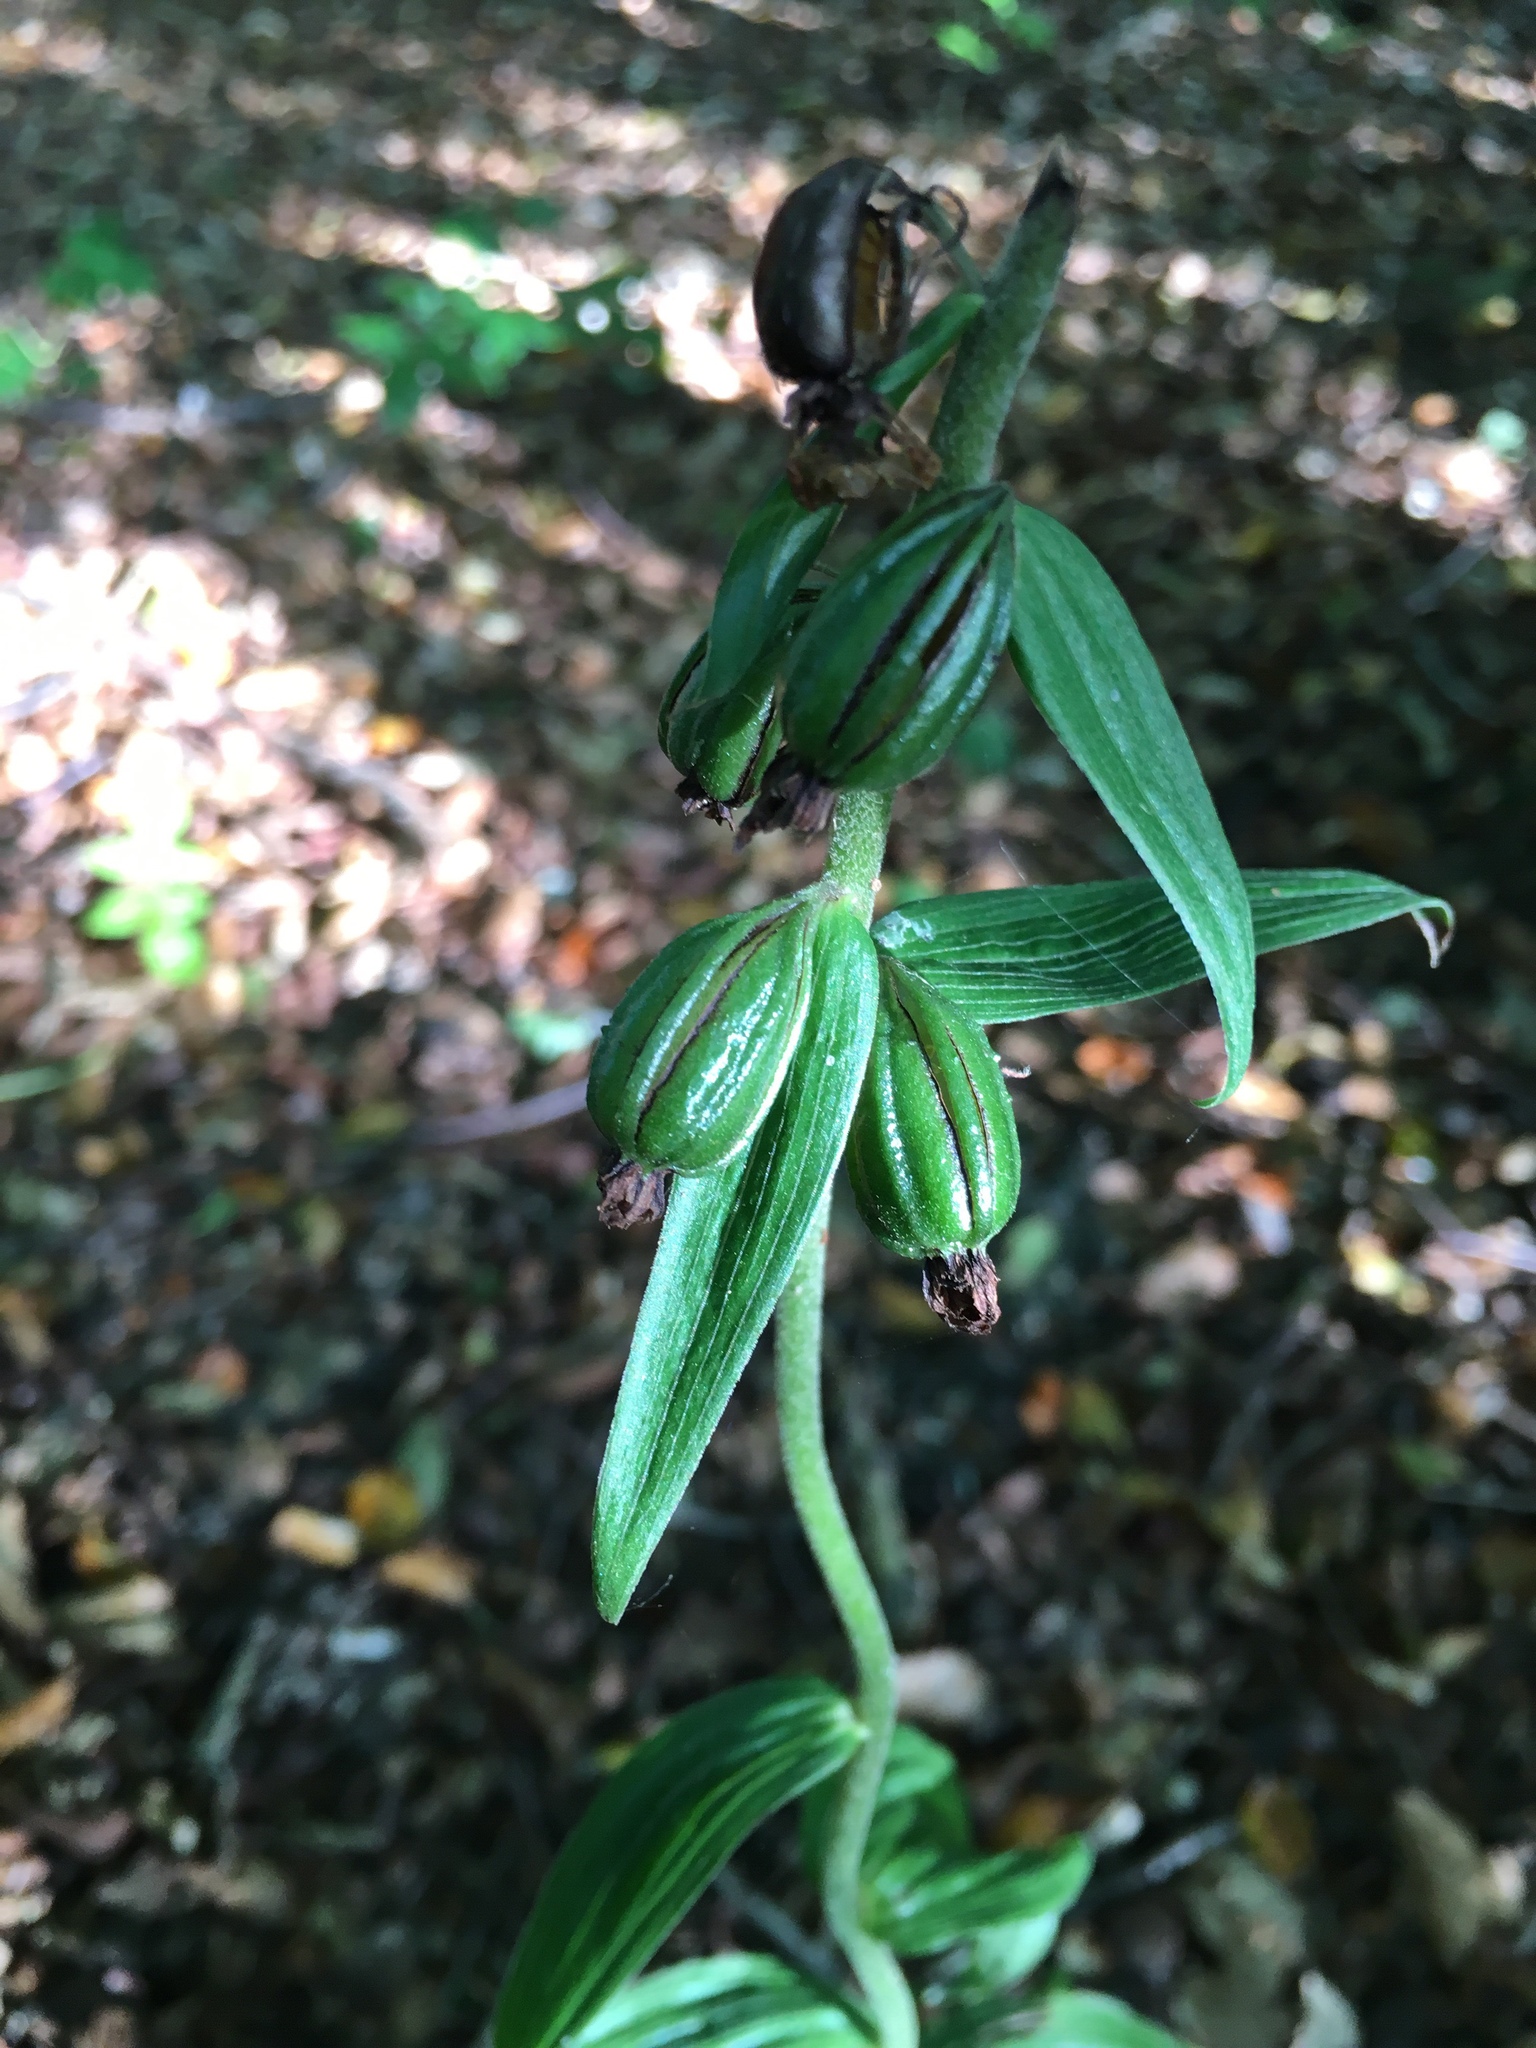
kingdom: Plantae
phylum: Tracheophyta
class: Liliopsida
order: Asparagales
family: Orchidaceae
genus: Epipactis
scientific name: Epipactis helleborine
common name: Broad-leaved helleborine
